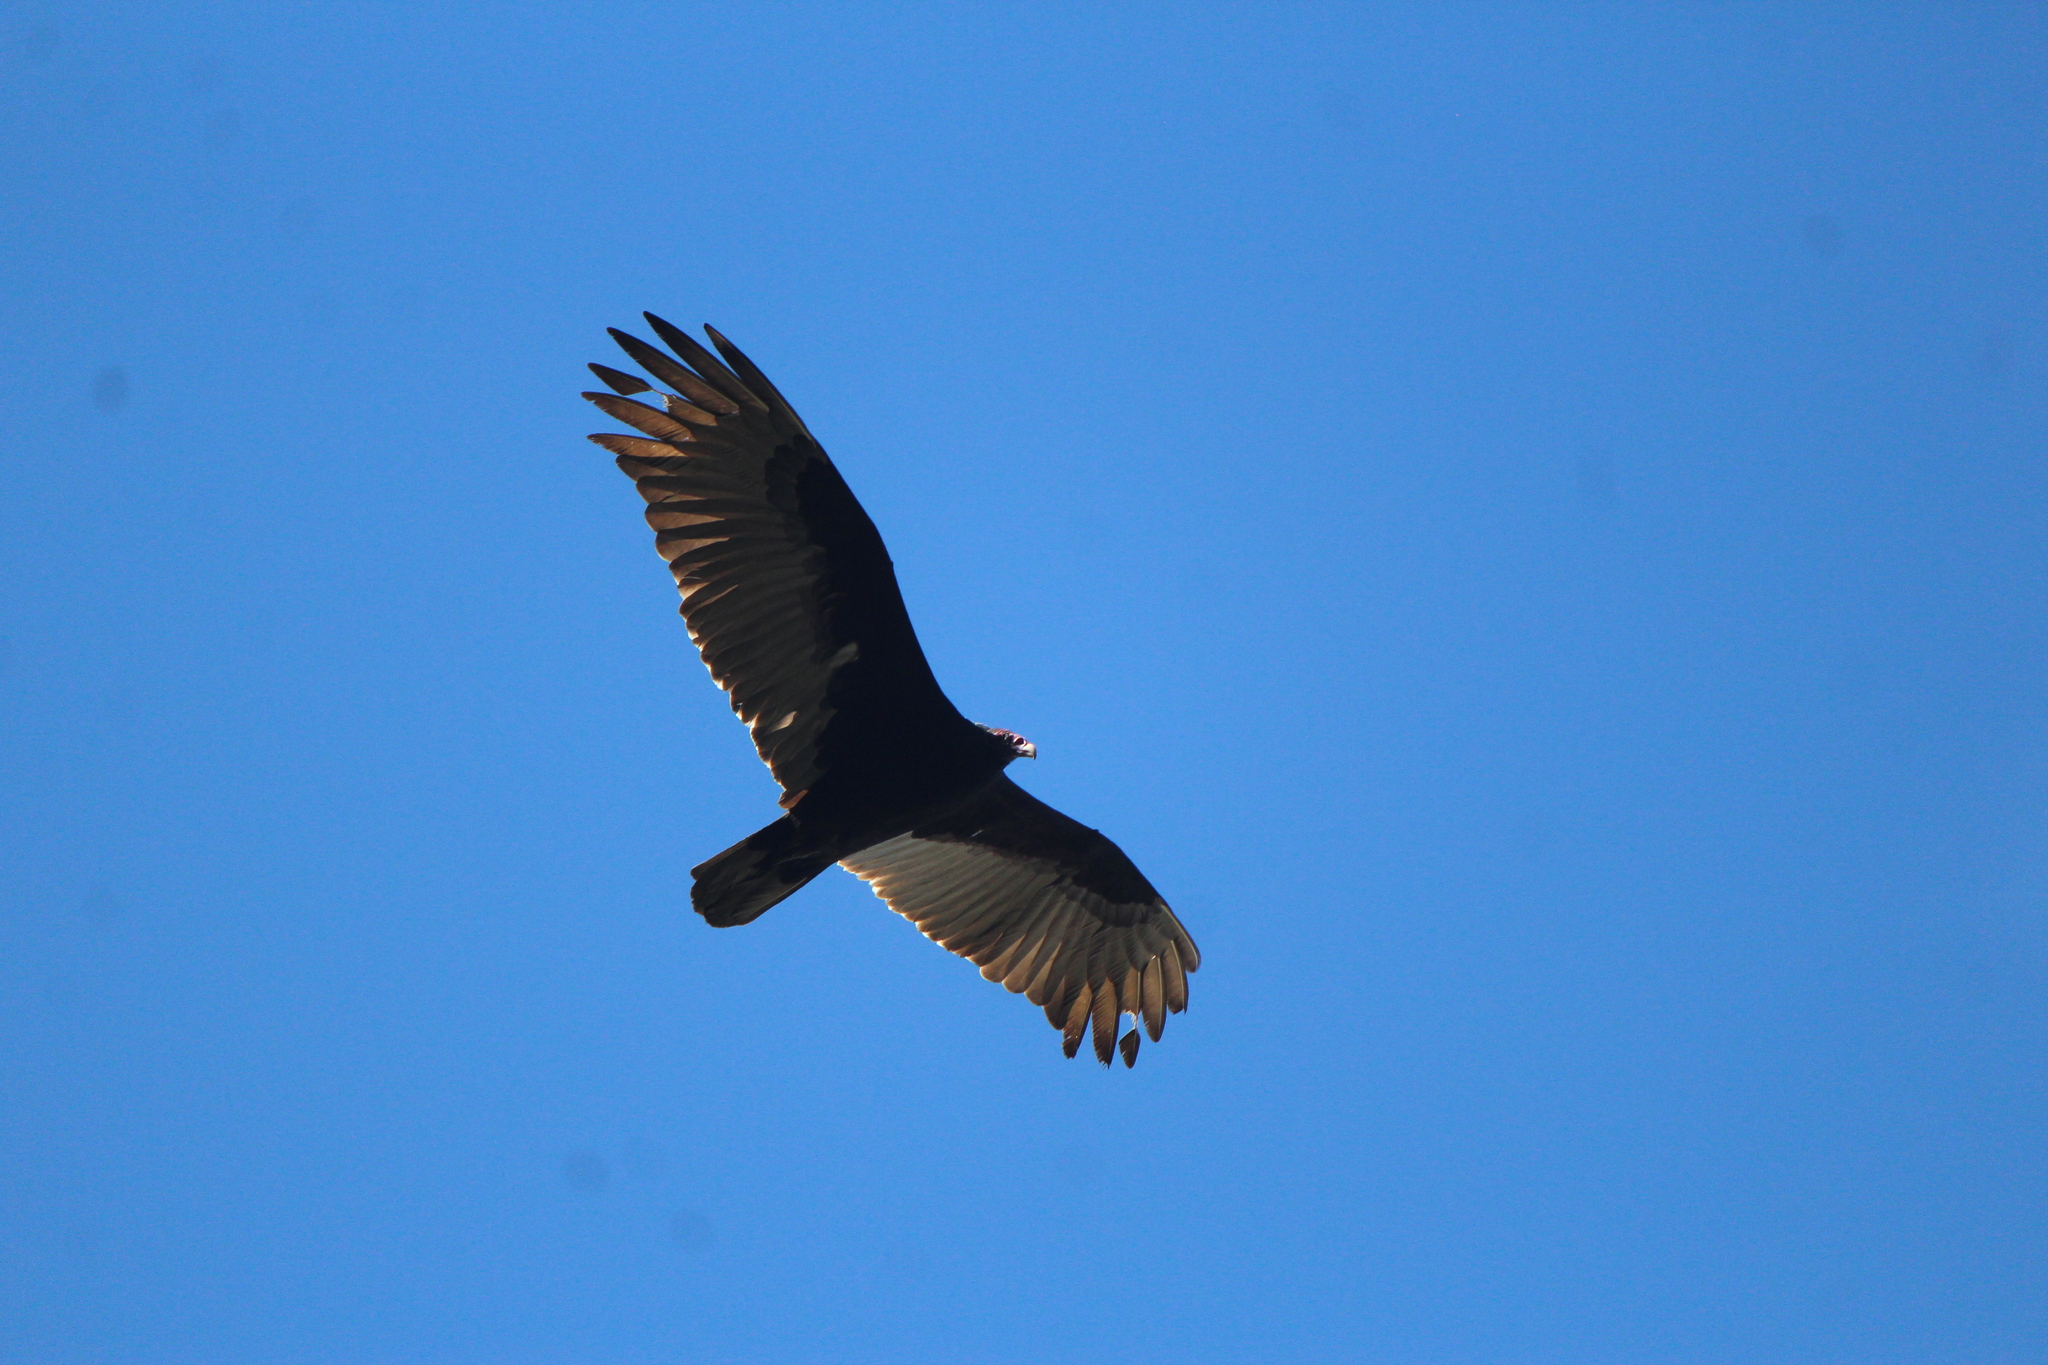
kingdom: Animalia
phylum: Chordata
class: Aves
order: Accipitriformes
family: Cathartidae
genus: Cathartes
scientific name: Cathartes aura
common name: Turkey vulture
